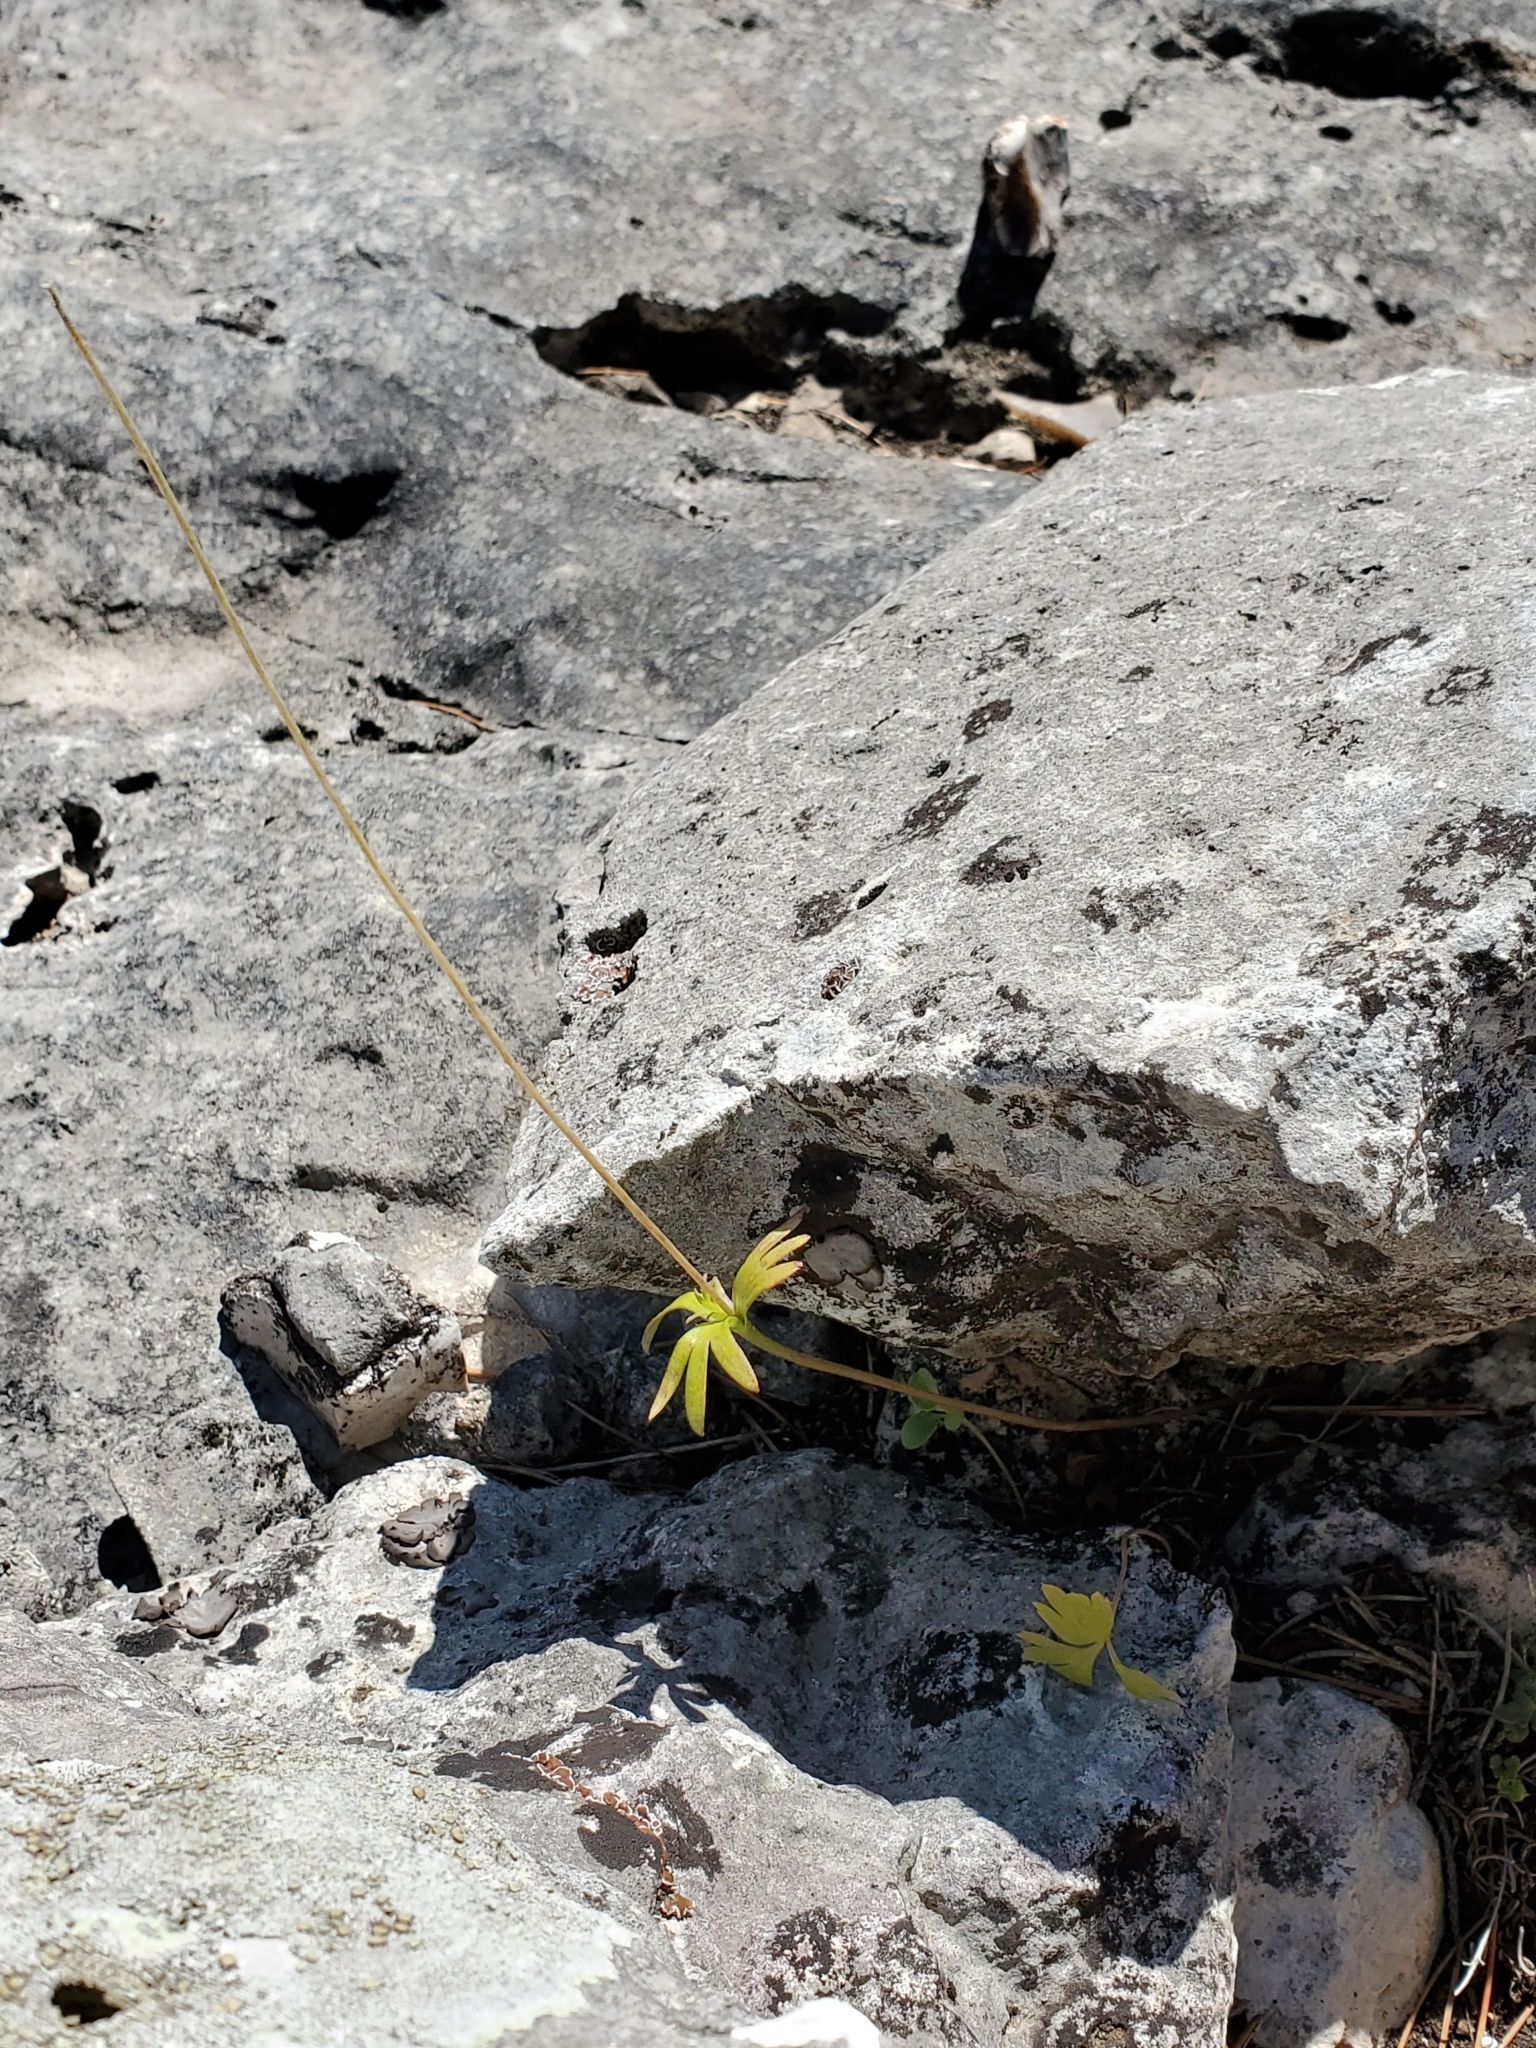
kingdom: Plantae
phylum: Tracheophyta
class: Magnoliopsida
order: Ranunculales
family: Ranunculaceae
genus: Anemone
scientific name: Anemone edwardsiana
